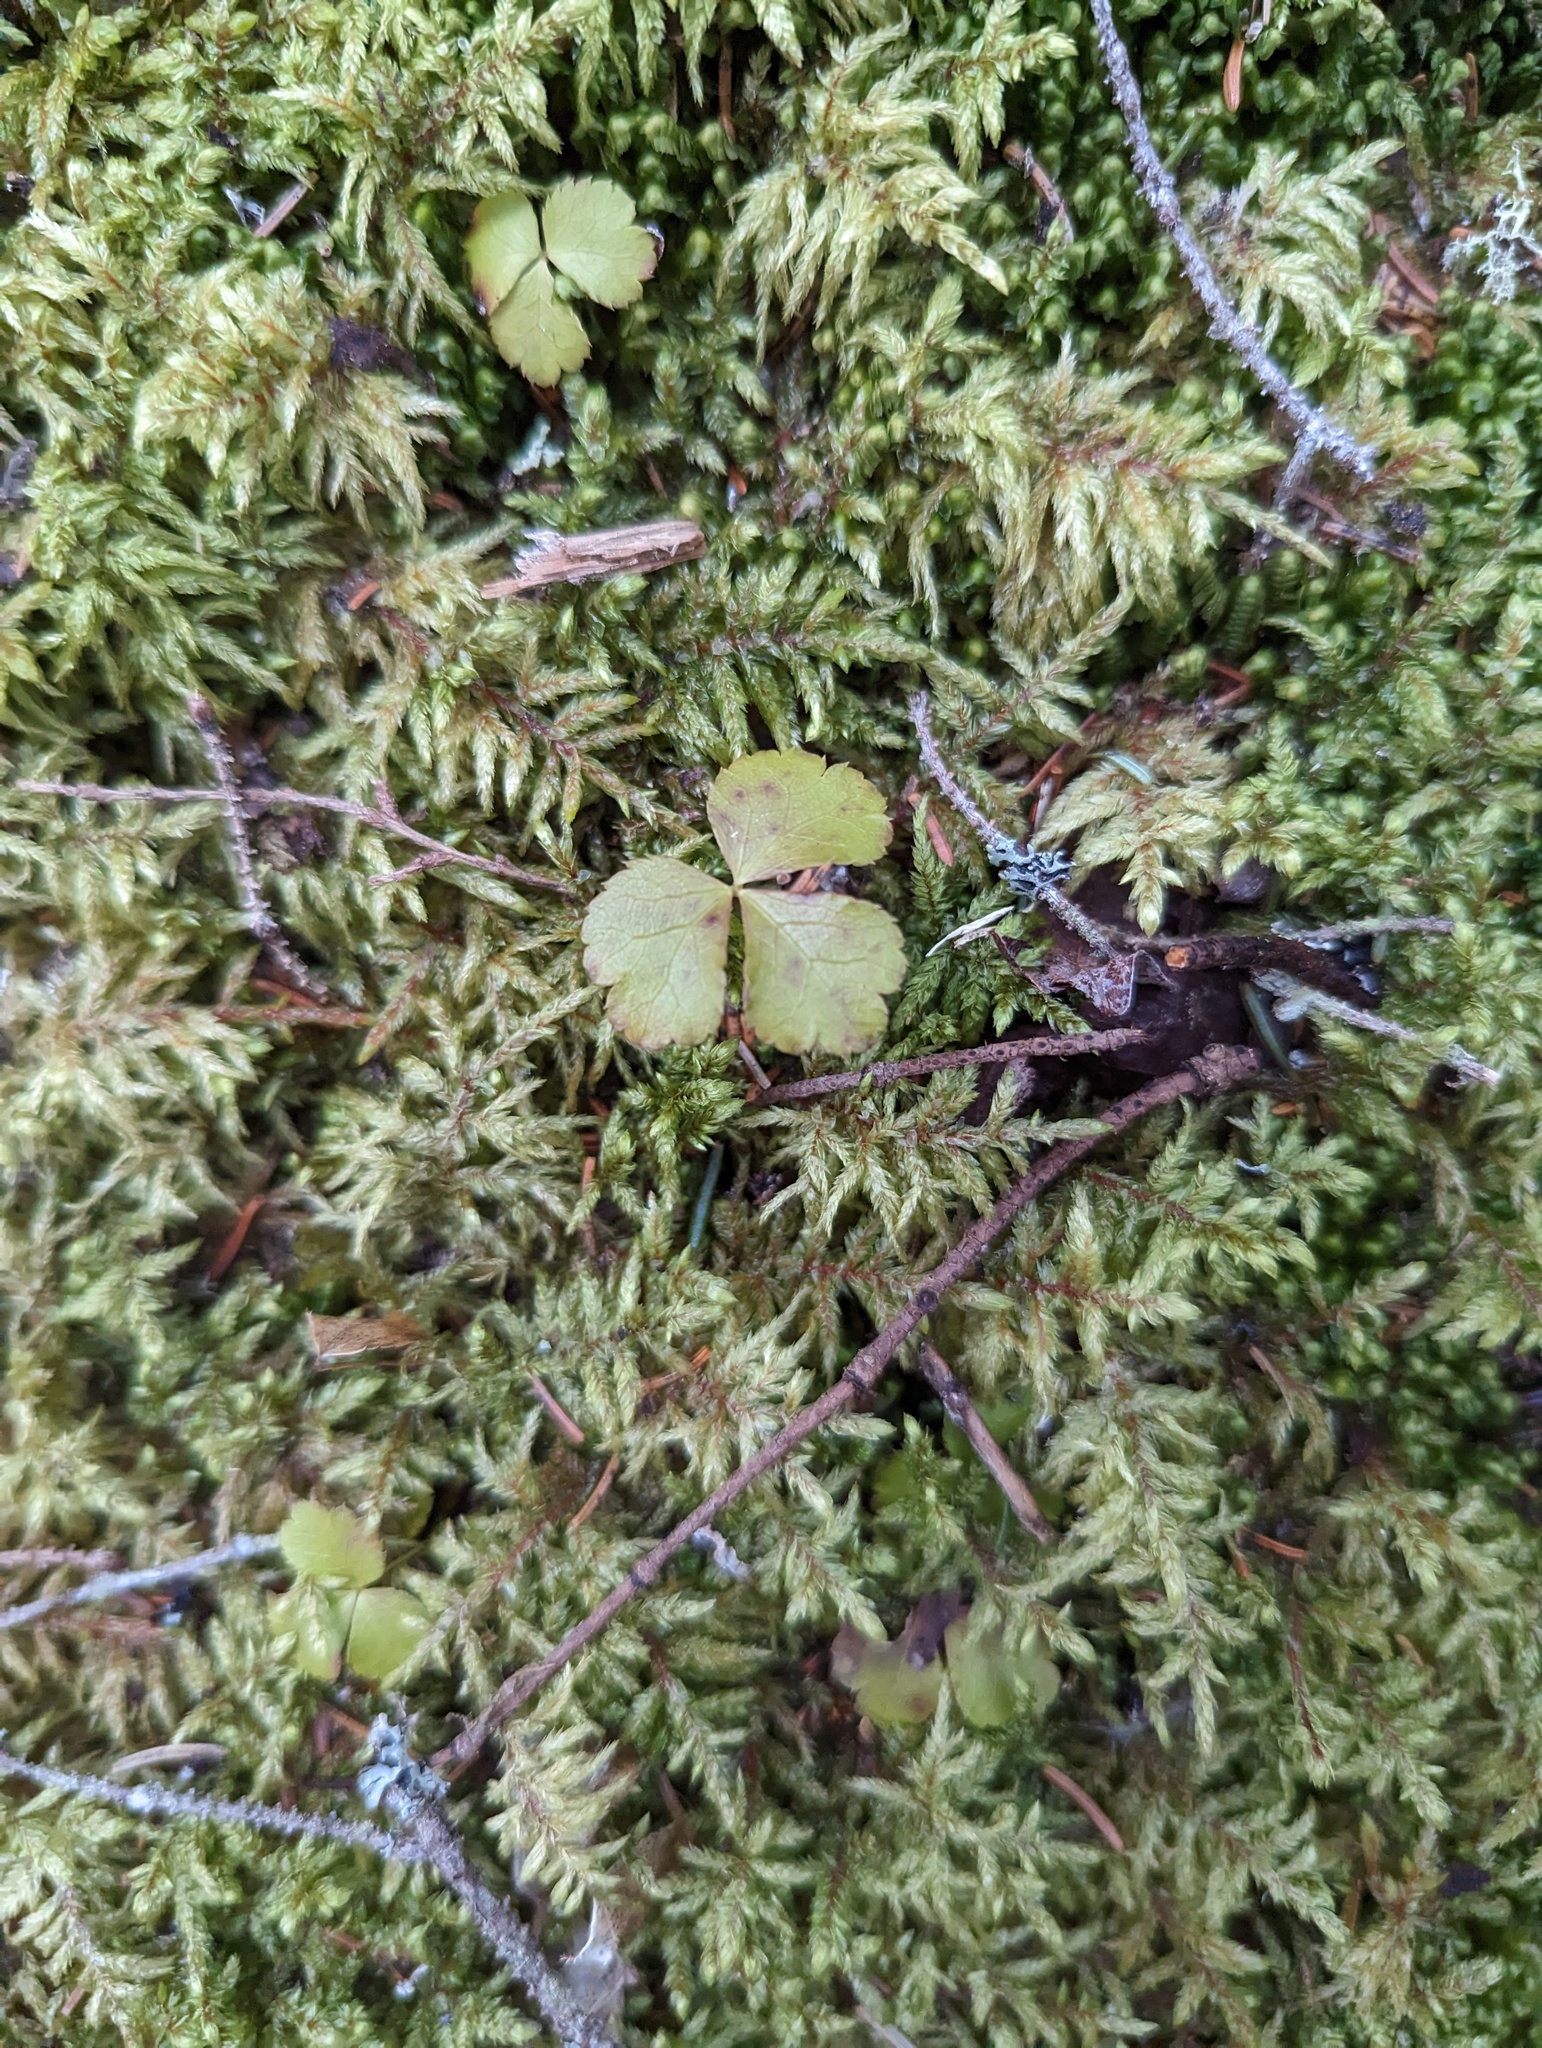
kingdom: Plantae
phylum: Tracheophyta
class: Magnoliopsida
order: Ranunculales
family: Ranunculaceae
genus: Coptis
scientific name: Coptis trifolia
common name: Canker-root
